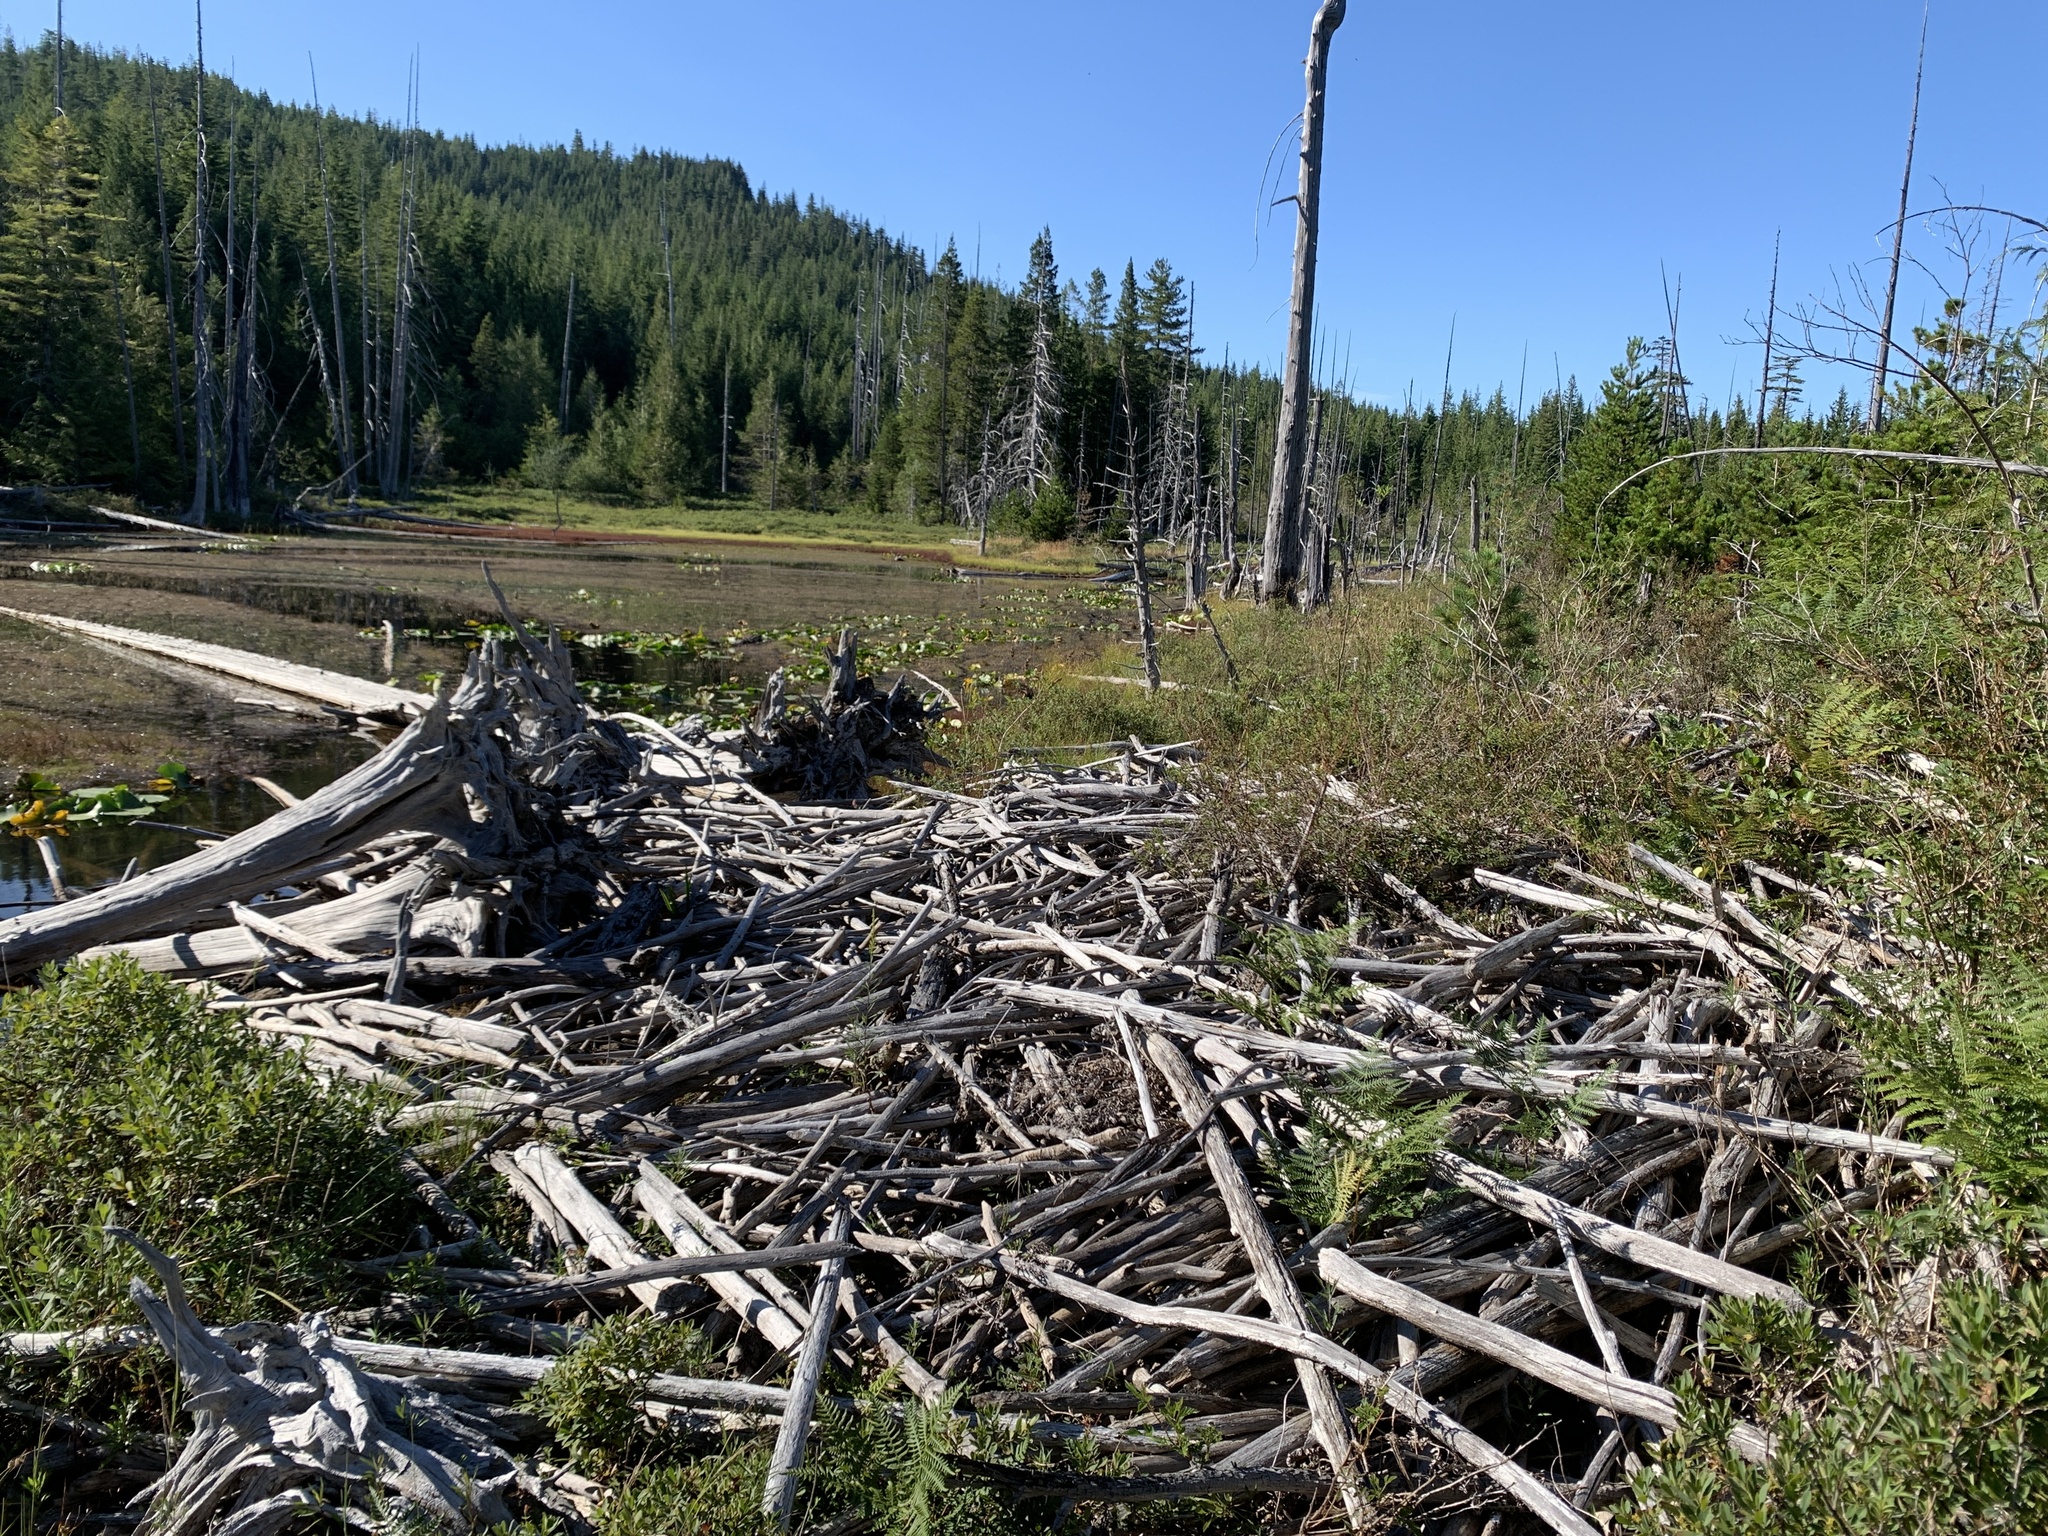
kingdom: Animalia
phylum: Chordata
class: Mammalia
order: Rodentia
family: Castoridae
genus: Castor
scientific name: Castor canadensis
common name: American beaver
